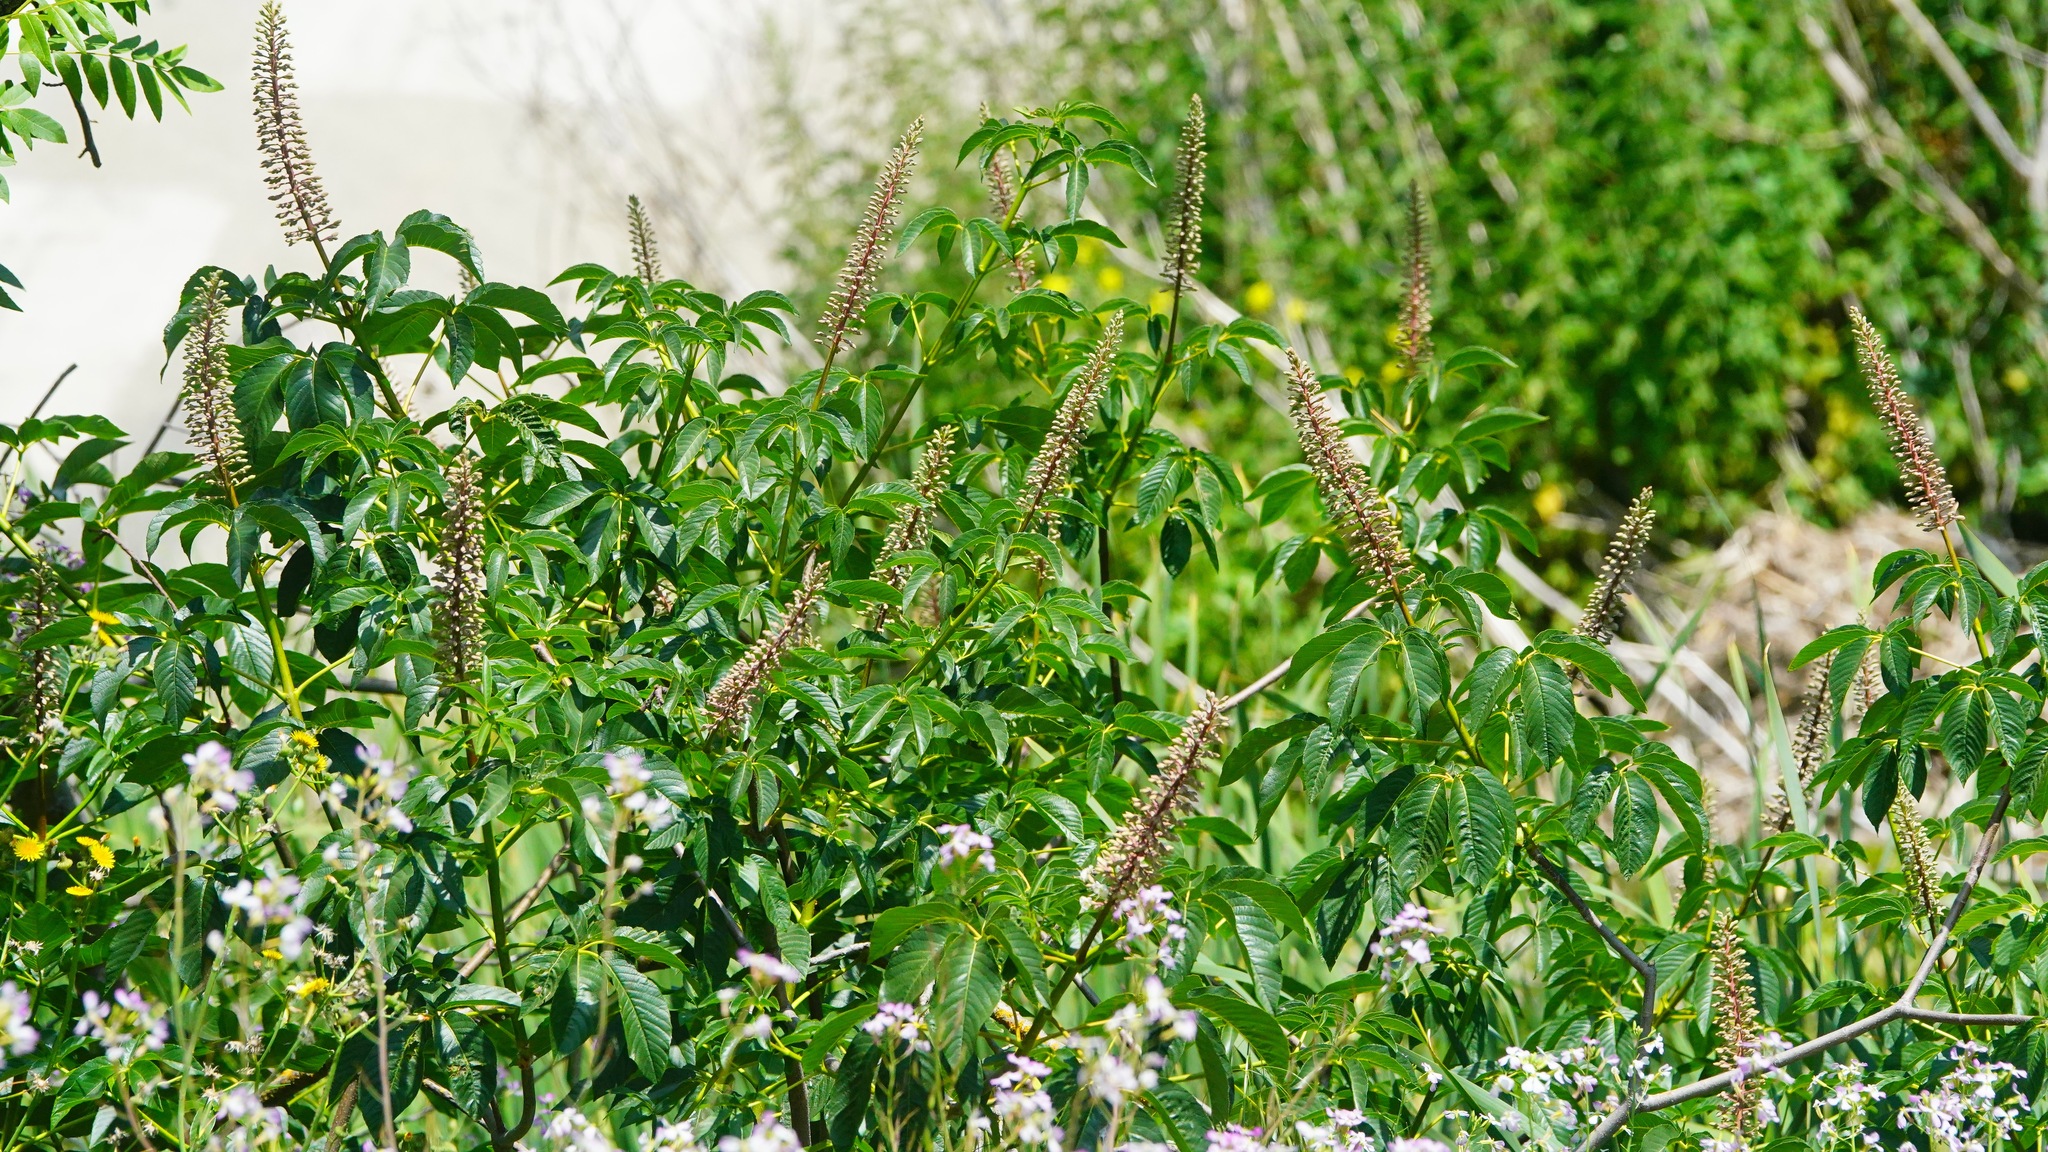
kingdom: Plantae
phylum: Tracheophyta
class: Magnoliopsida
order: Sapindales
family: Sapindaceae
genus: Aesculus
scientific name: Aesculus californica
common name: California buckeye
